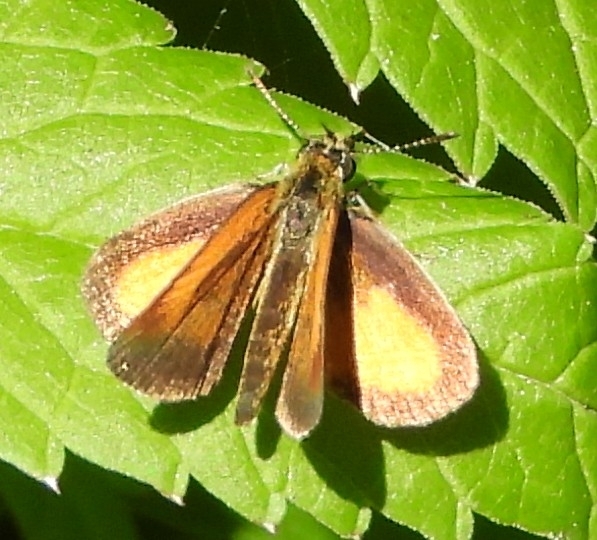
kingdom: Animalia
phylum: Arthropoda
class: Insecta
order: Lepidoptera
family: Hesperiidae
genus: Ancyloxypha
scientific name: Ancyloxypha numitor
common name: Least skipper
